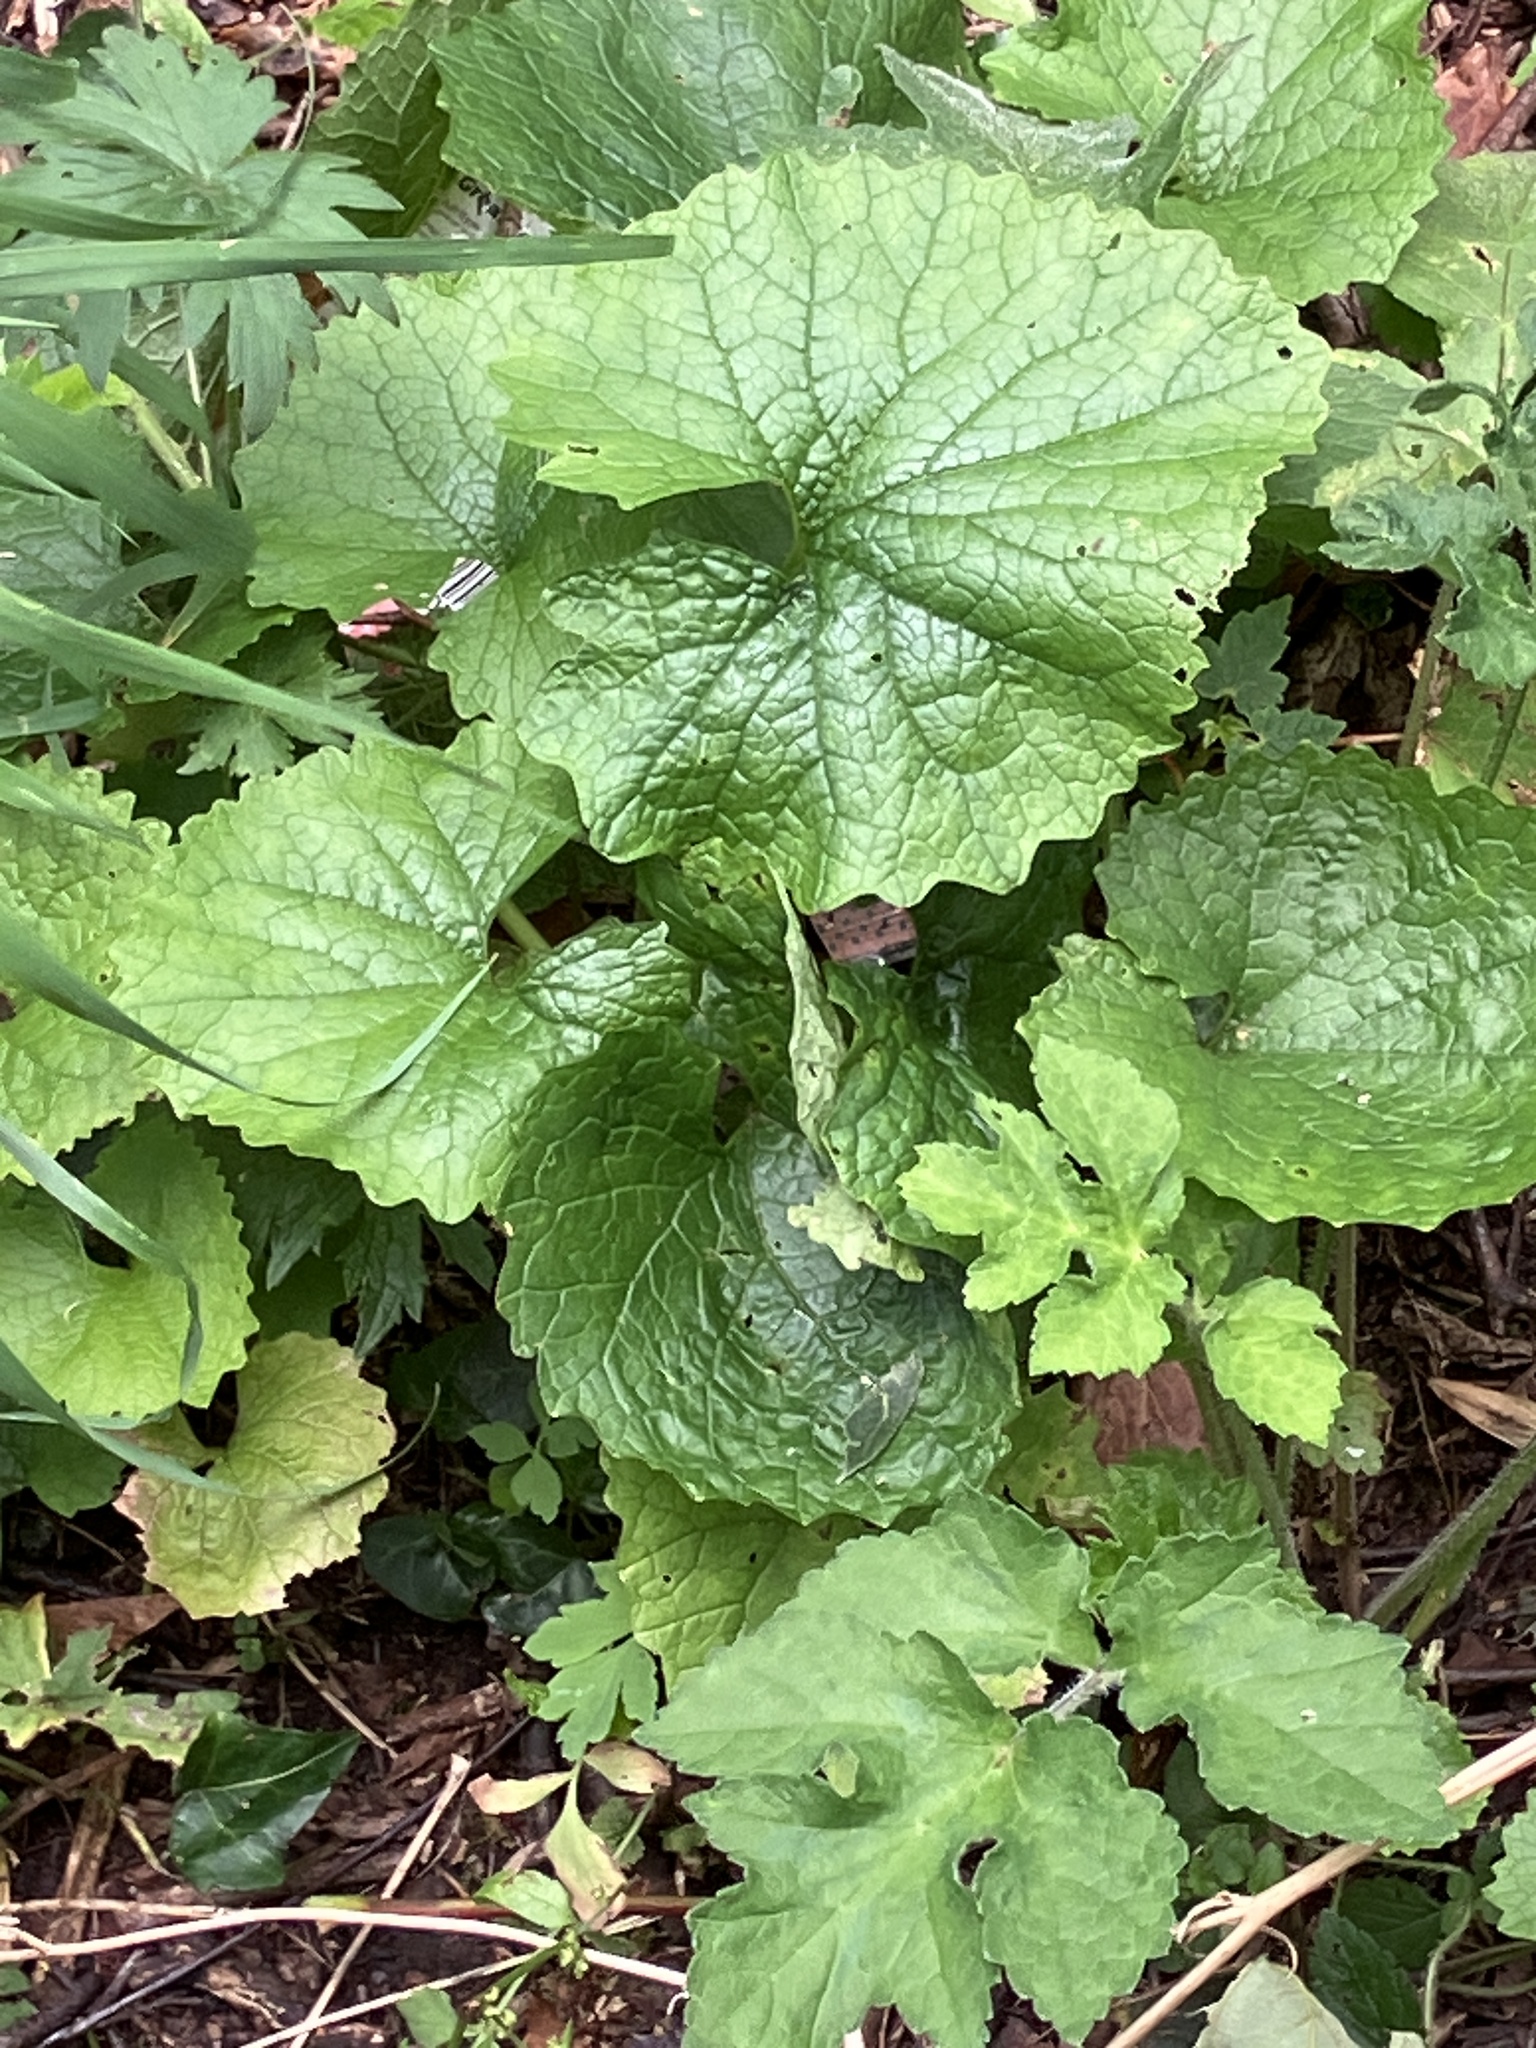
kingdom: Plantae
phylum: Tracheophyta
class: Magnoliopsida
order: Brassicales
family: Brassicaceae
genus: Alliaria
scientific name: Alliaria petiolata
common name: Garlic mustard
